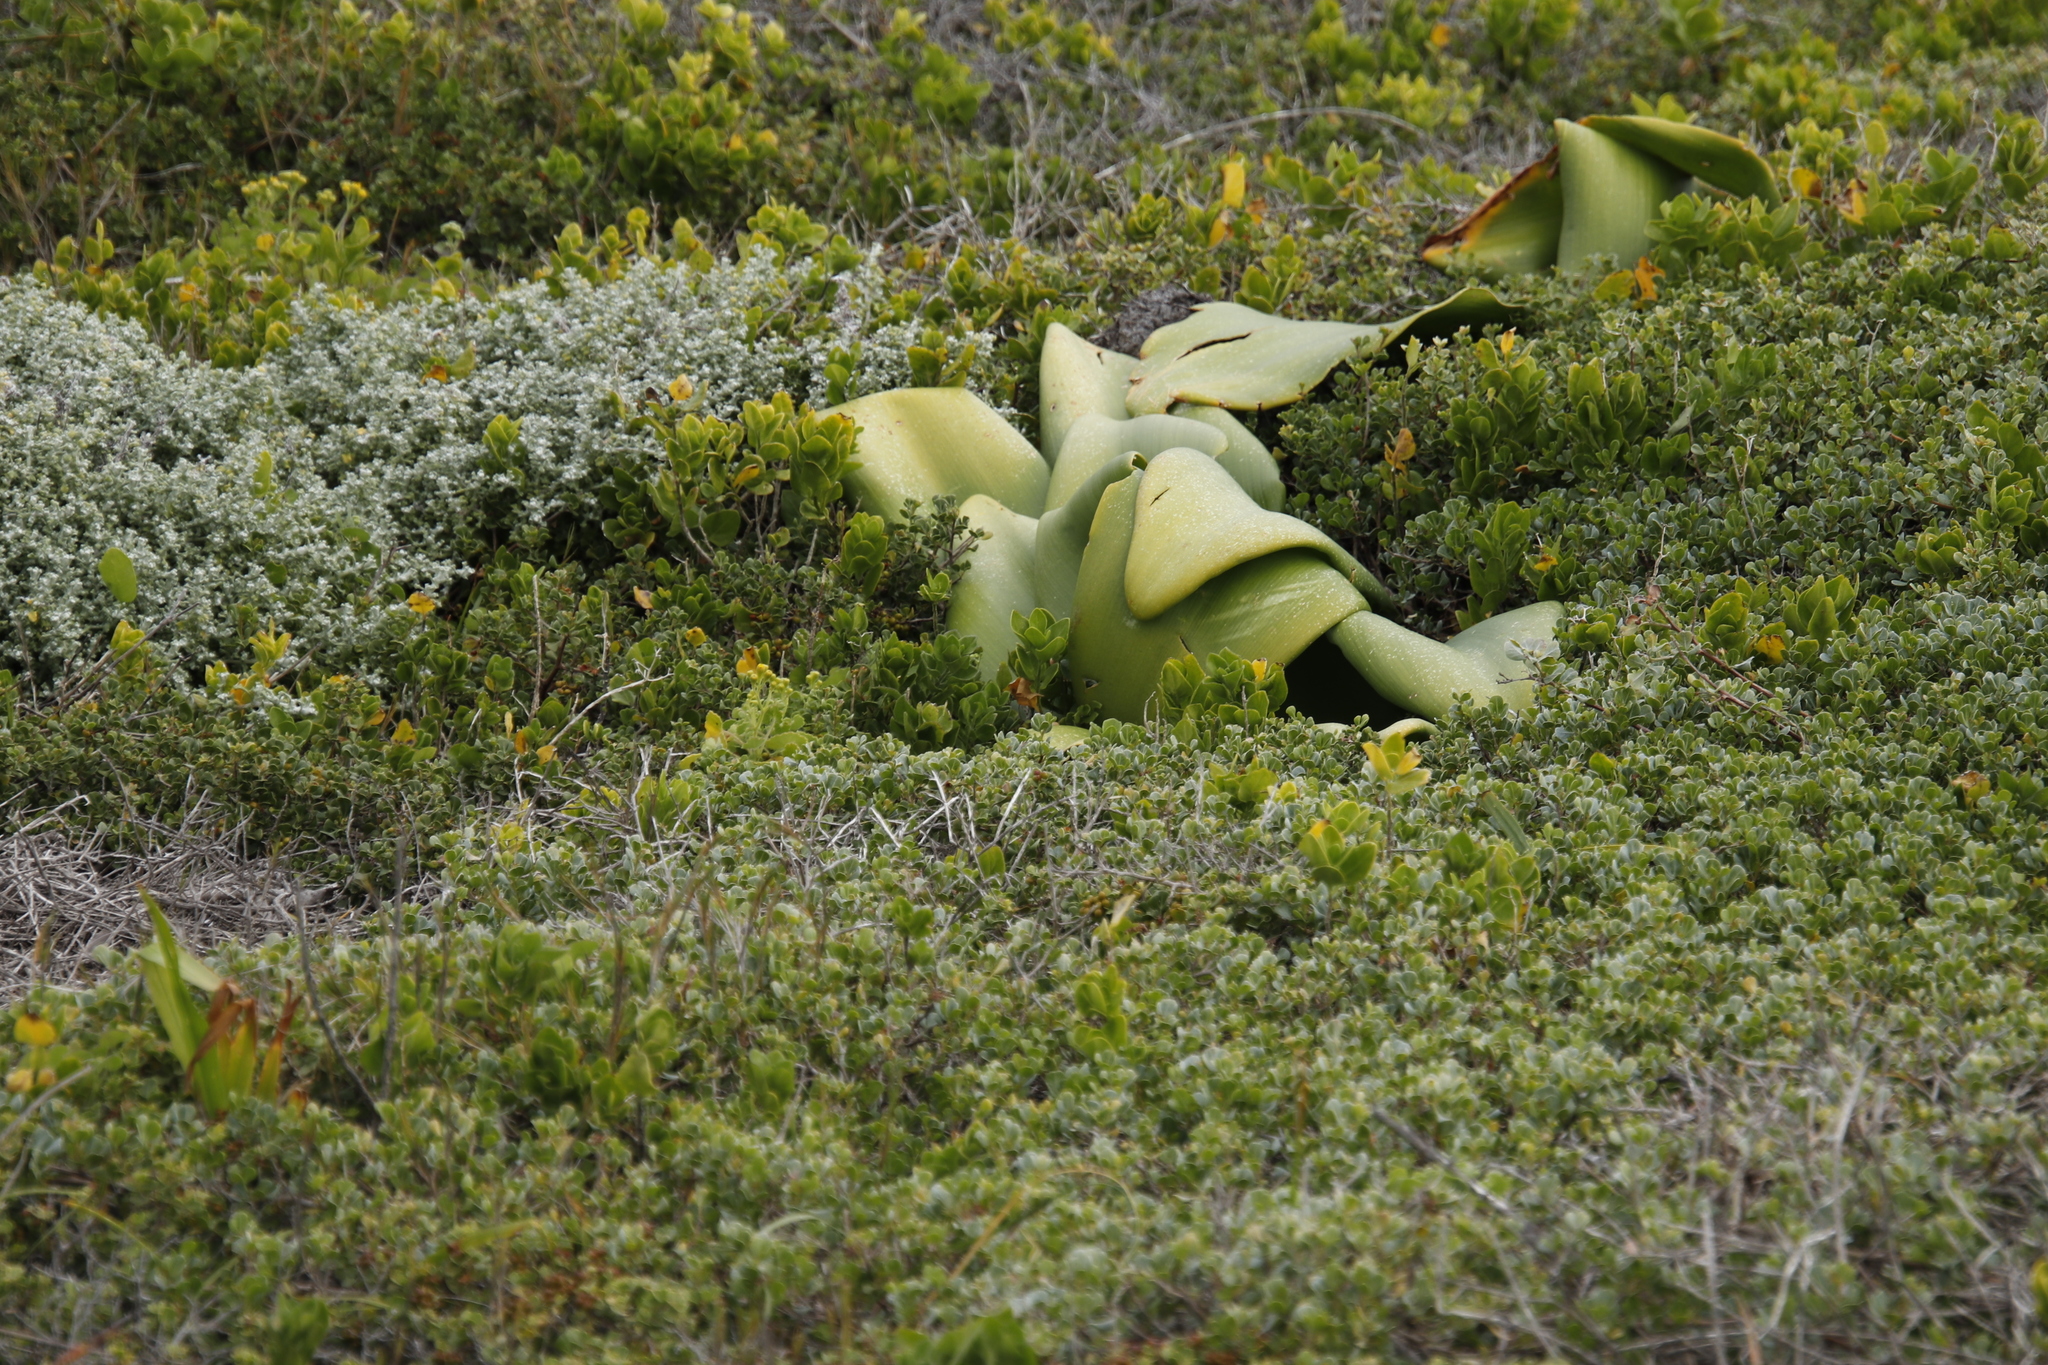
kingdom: Plantae
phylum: Tracheophyta
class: Liliopsida
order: Asparagales
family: Amaryllidaceae
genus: Haemanthus
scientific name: Haemanthus coccineus
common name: Cape-tulip
